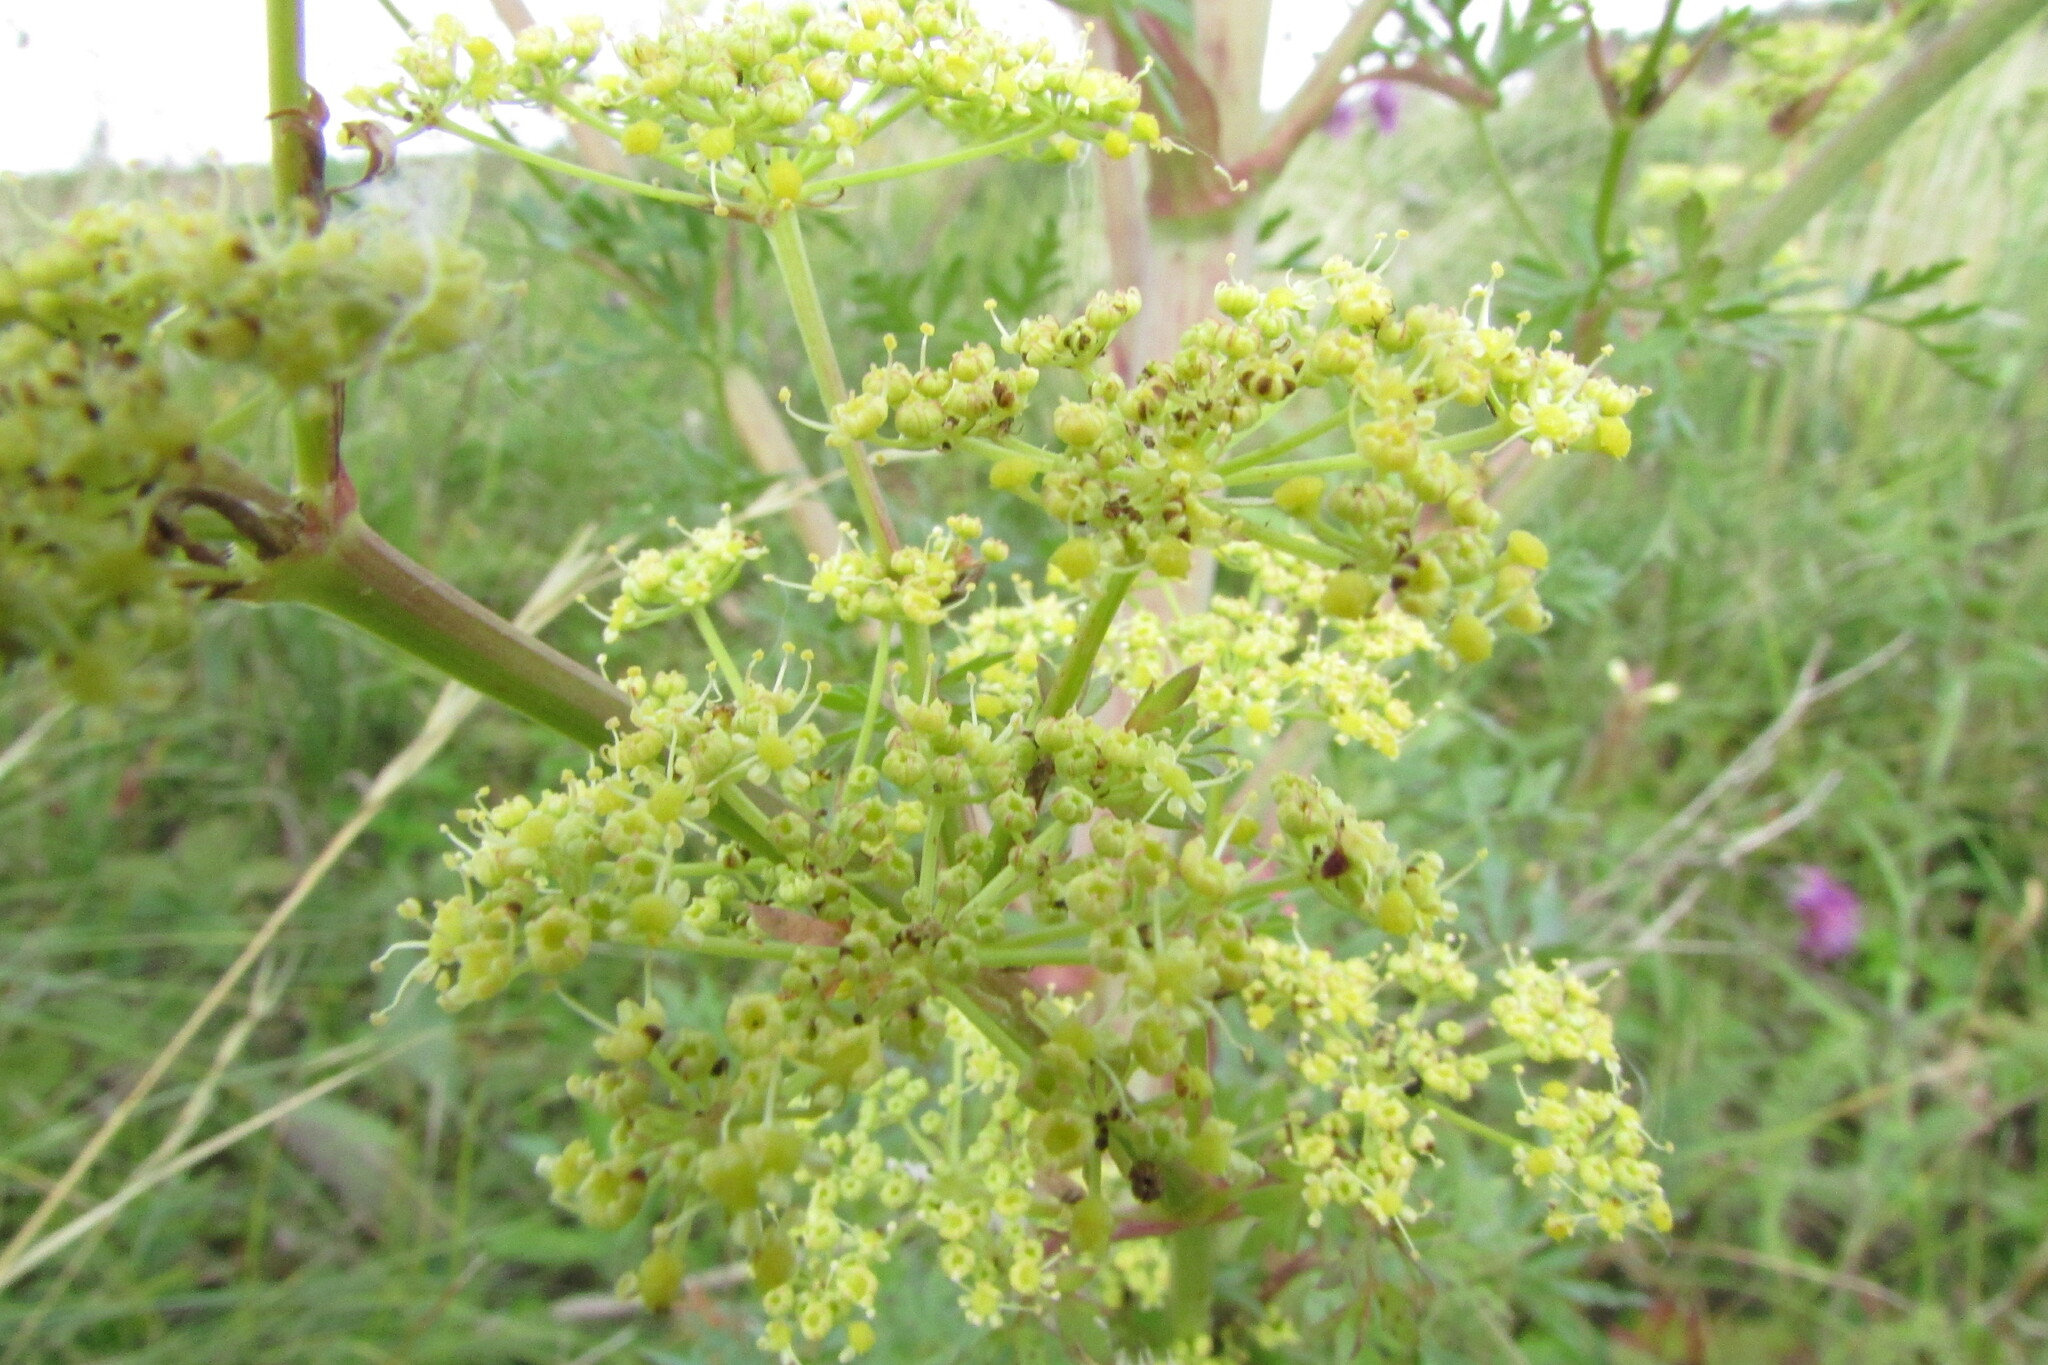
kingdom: Plantae
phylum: Tracheophyta
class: Magnoliopsida
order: Apiales
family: Apiaceae
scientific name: Apiaceae
